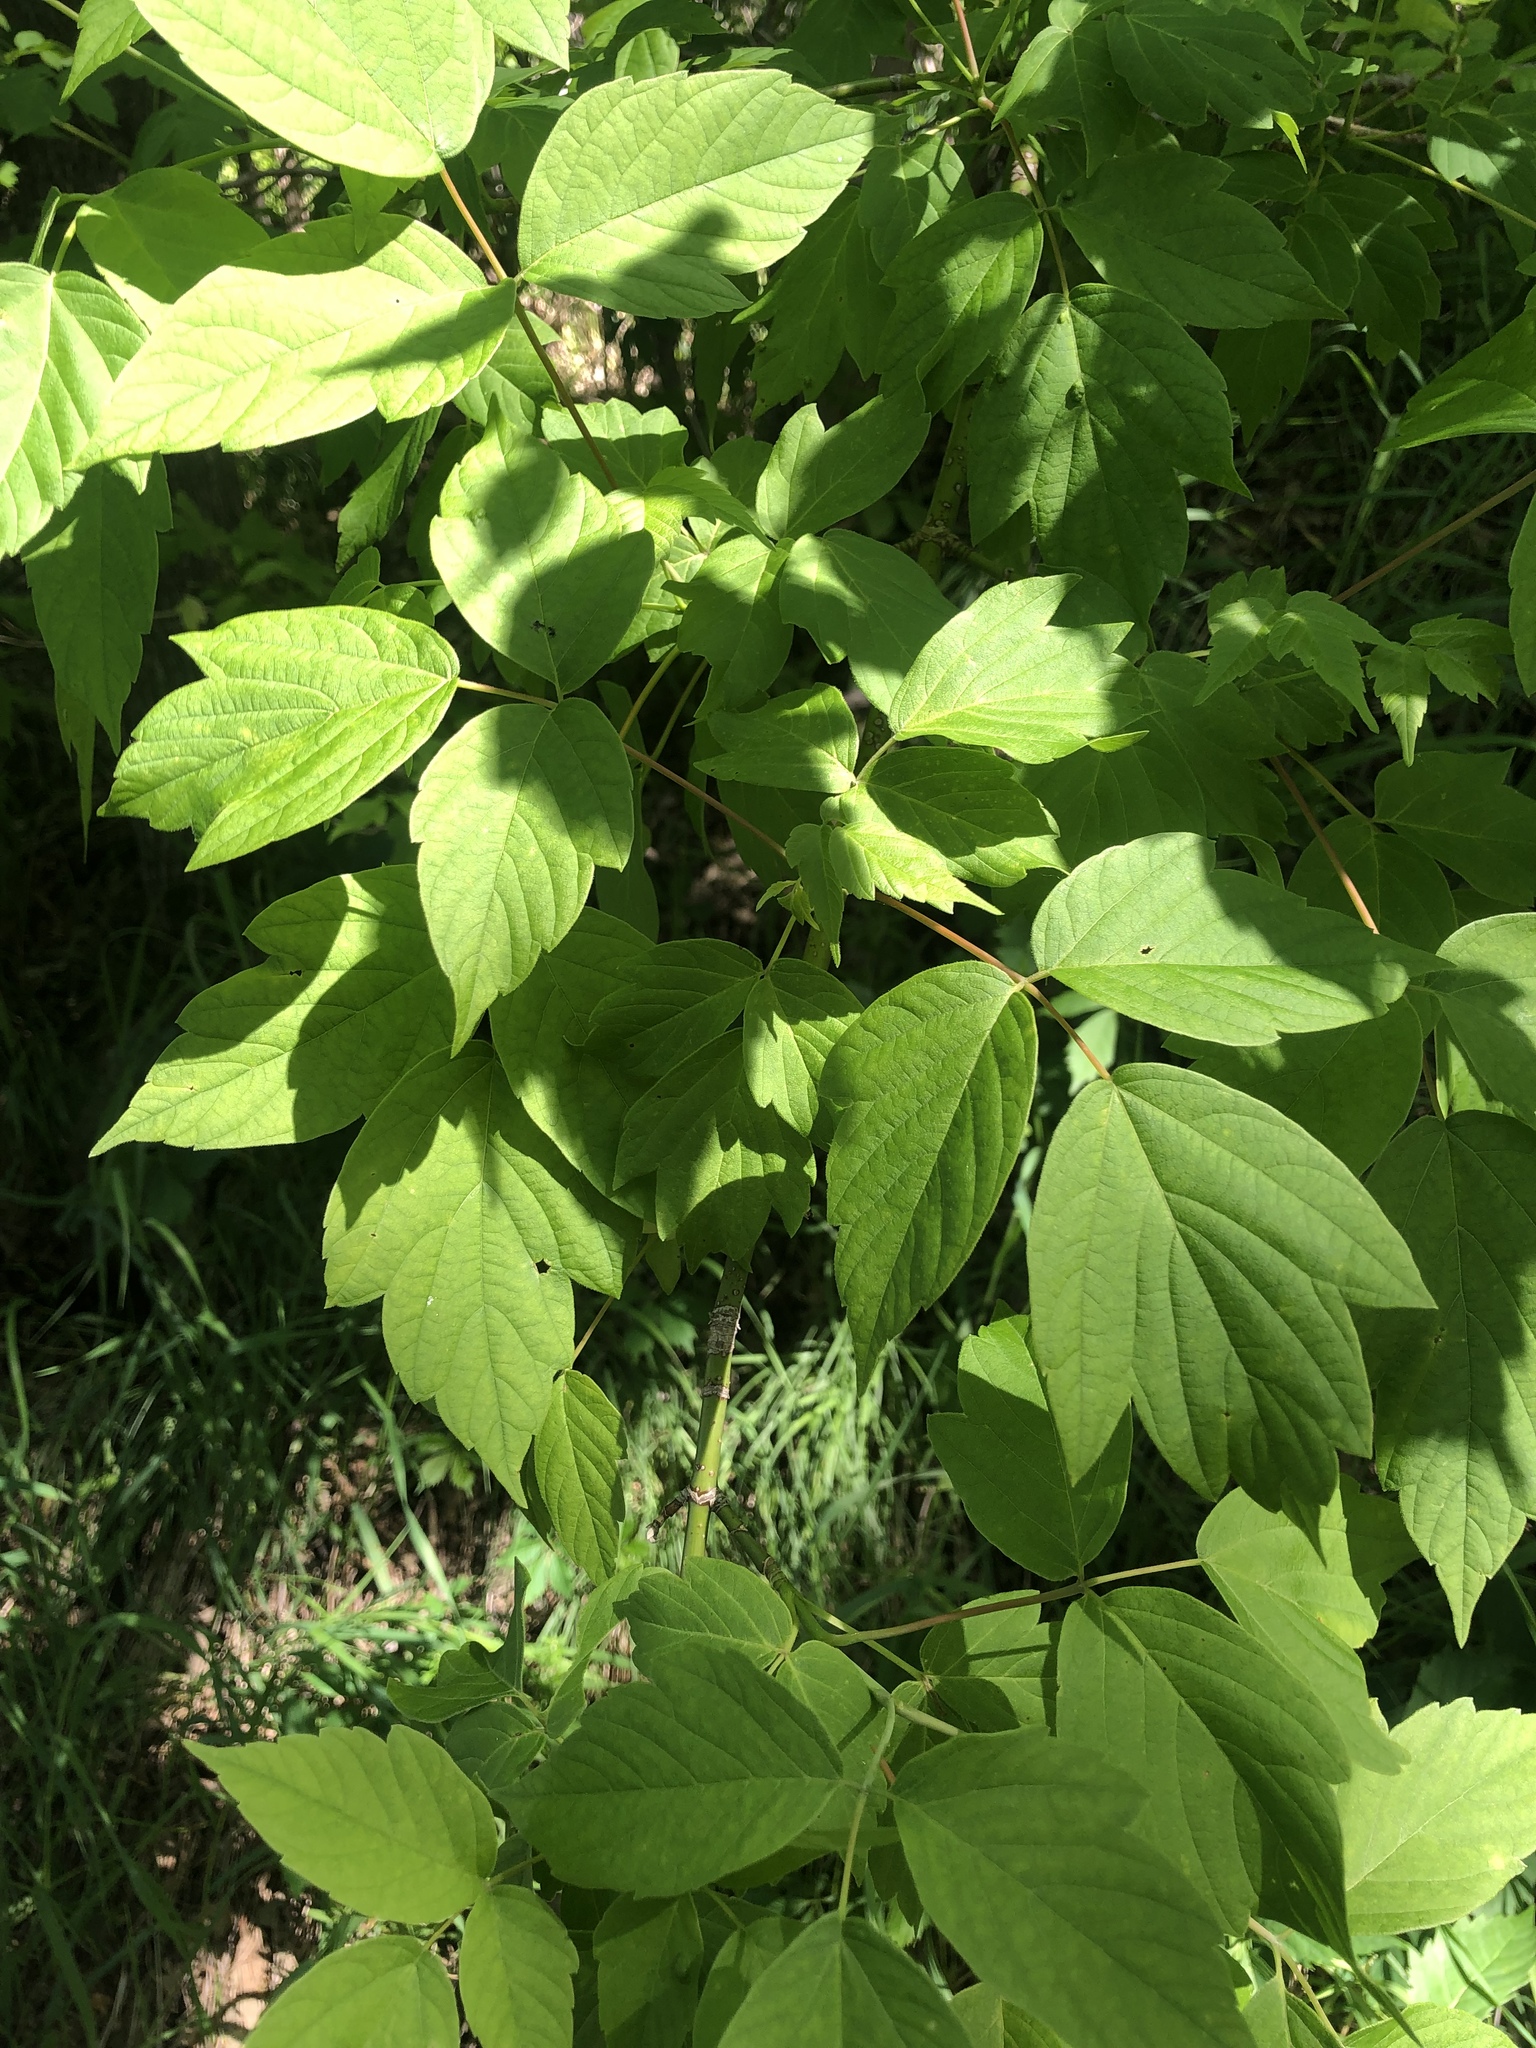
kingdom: Plantae
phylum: Tracheophyta
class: Magnoliopsida
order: Sapindales
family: Sapindaceae
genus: Acer
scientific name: Acer negundo
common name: Ashleaf maple
